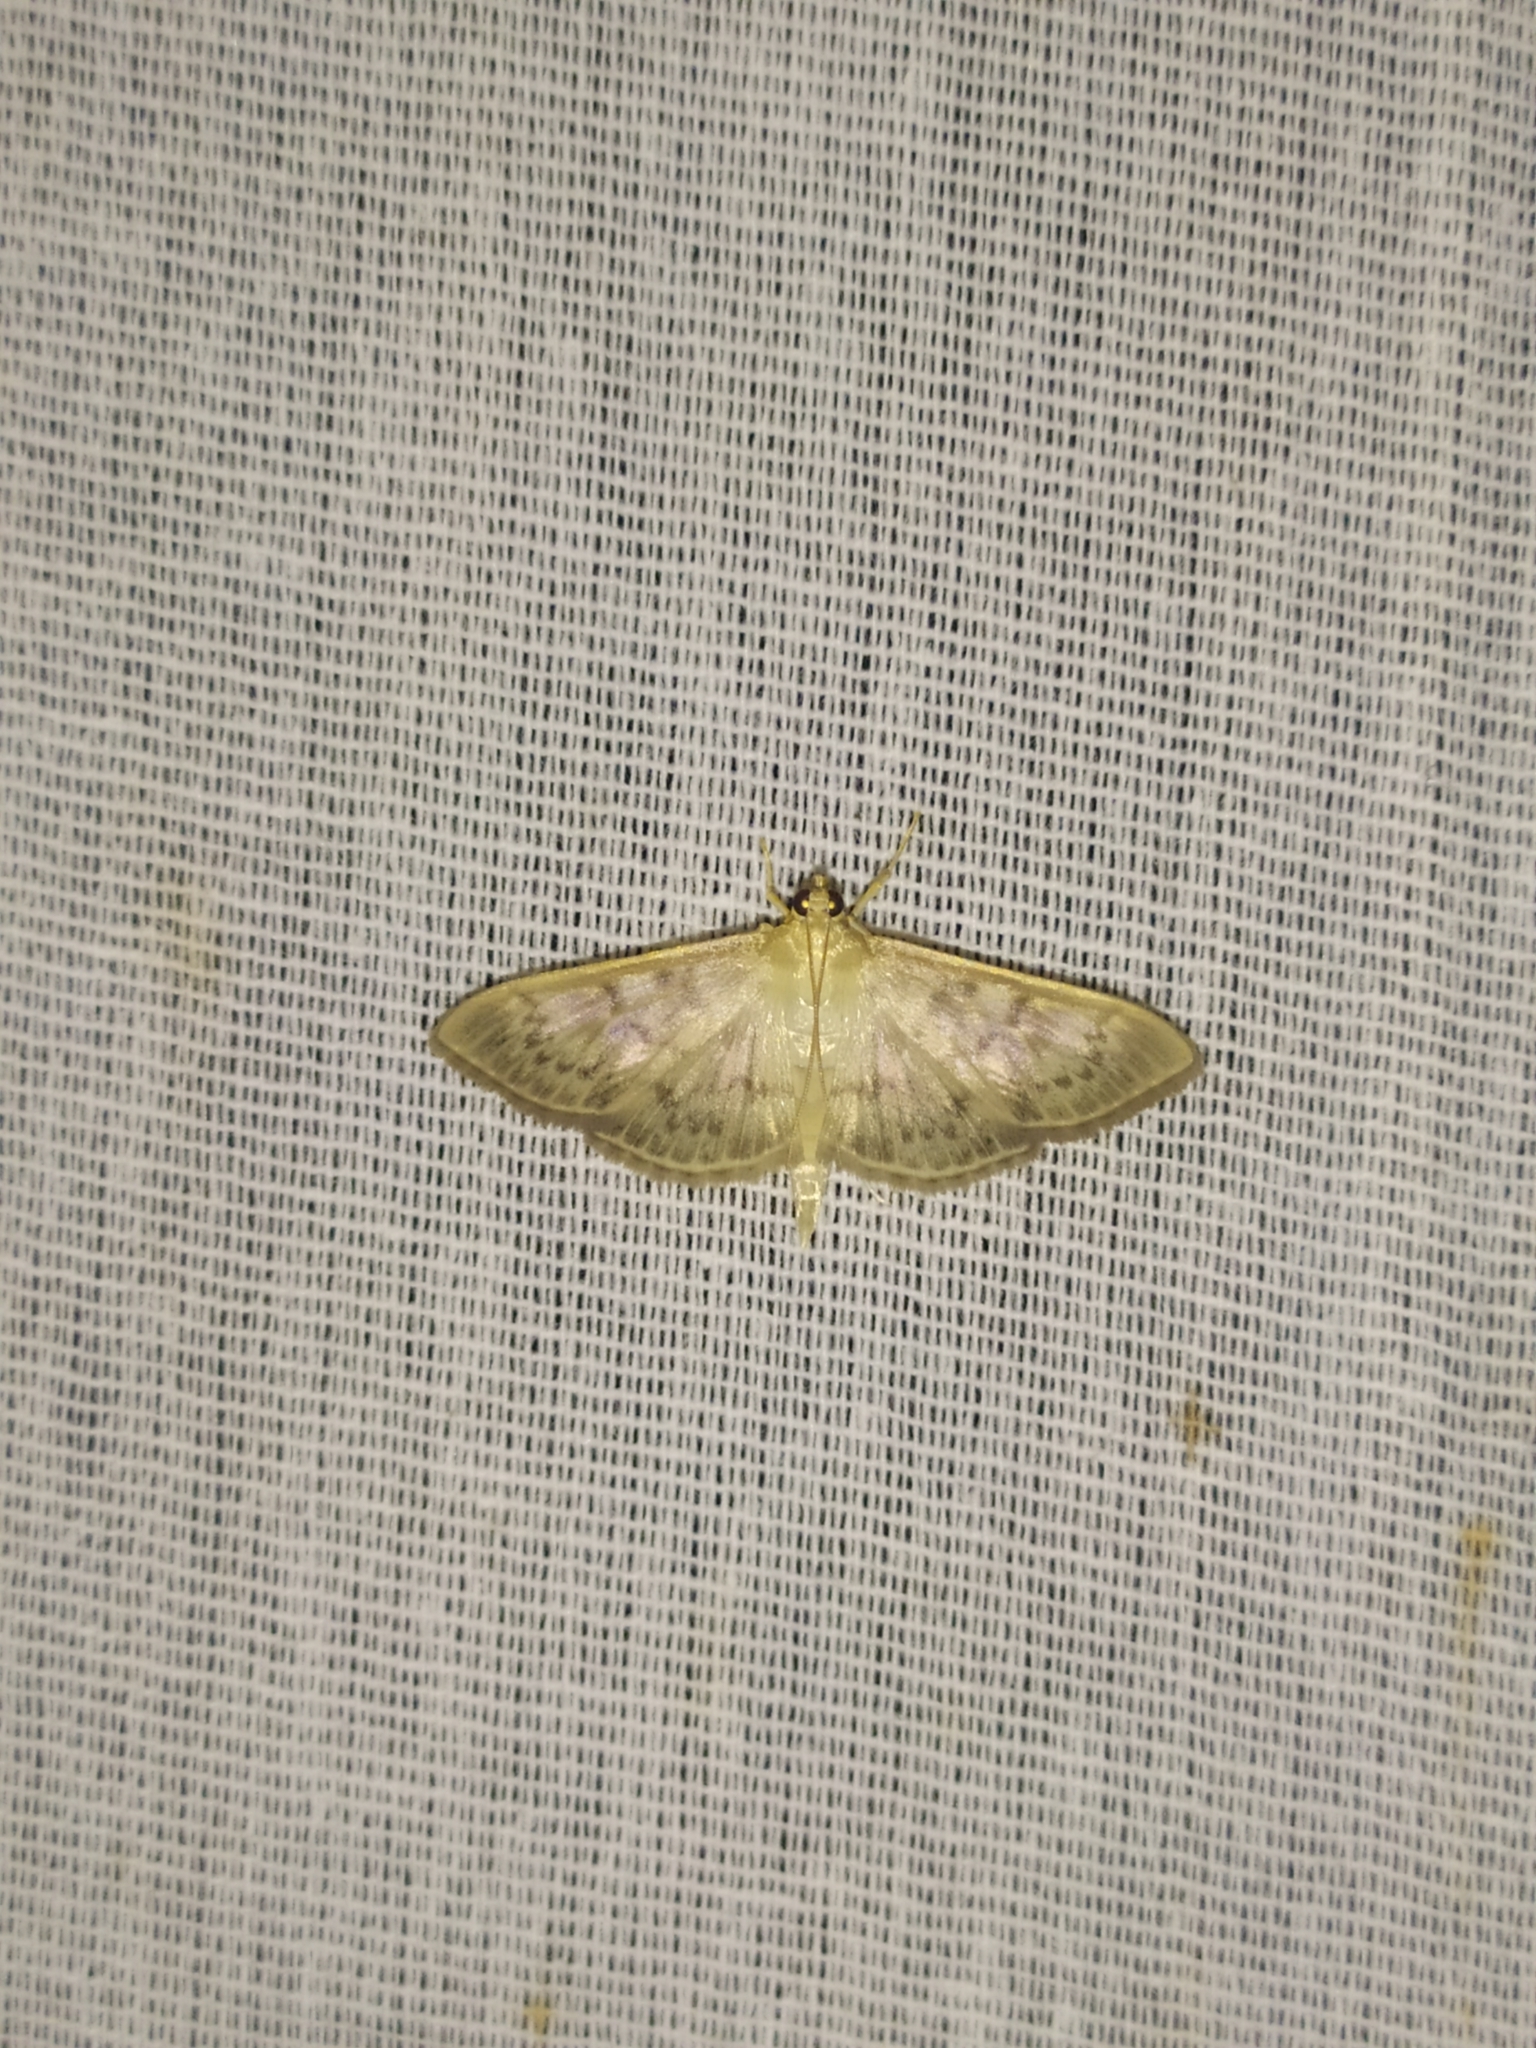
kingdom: Animalia
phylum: Arthropoda
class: Insecta
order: Lepidoptera
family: Crambidae
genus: Patania
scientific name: Patania ruralis
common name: Mother of pearl
